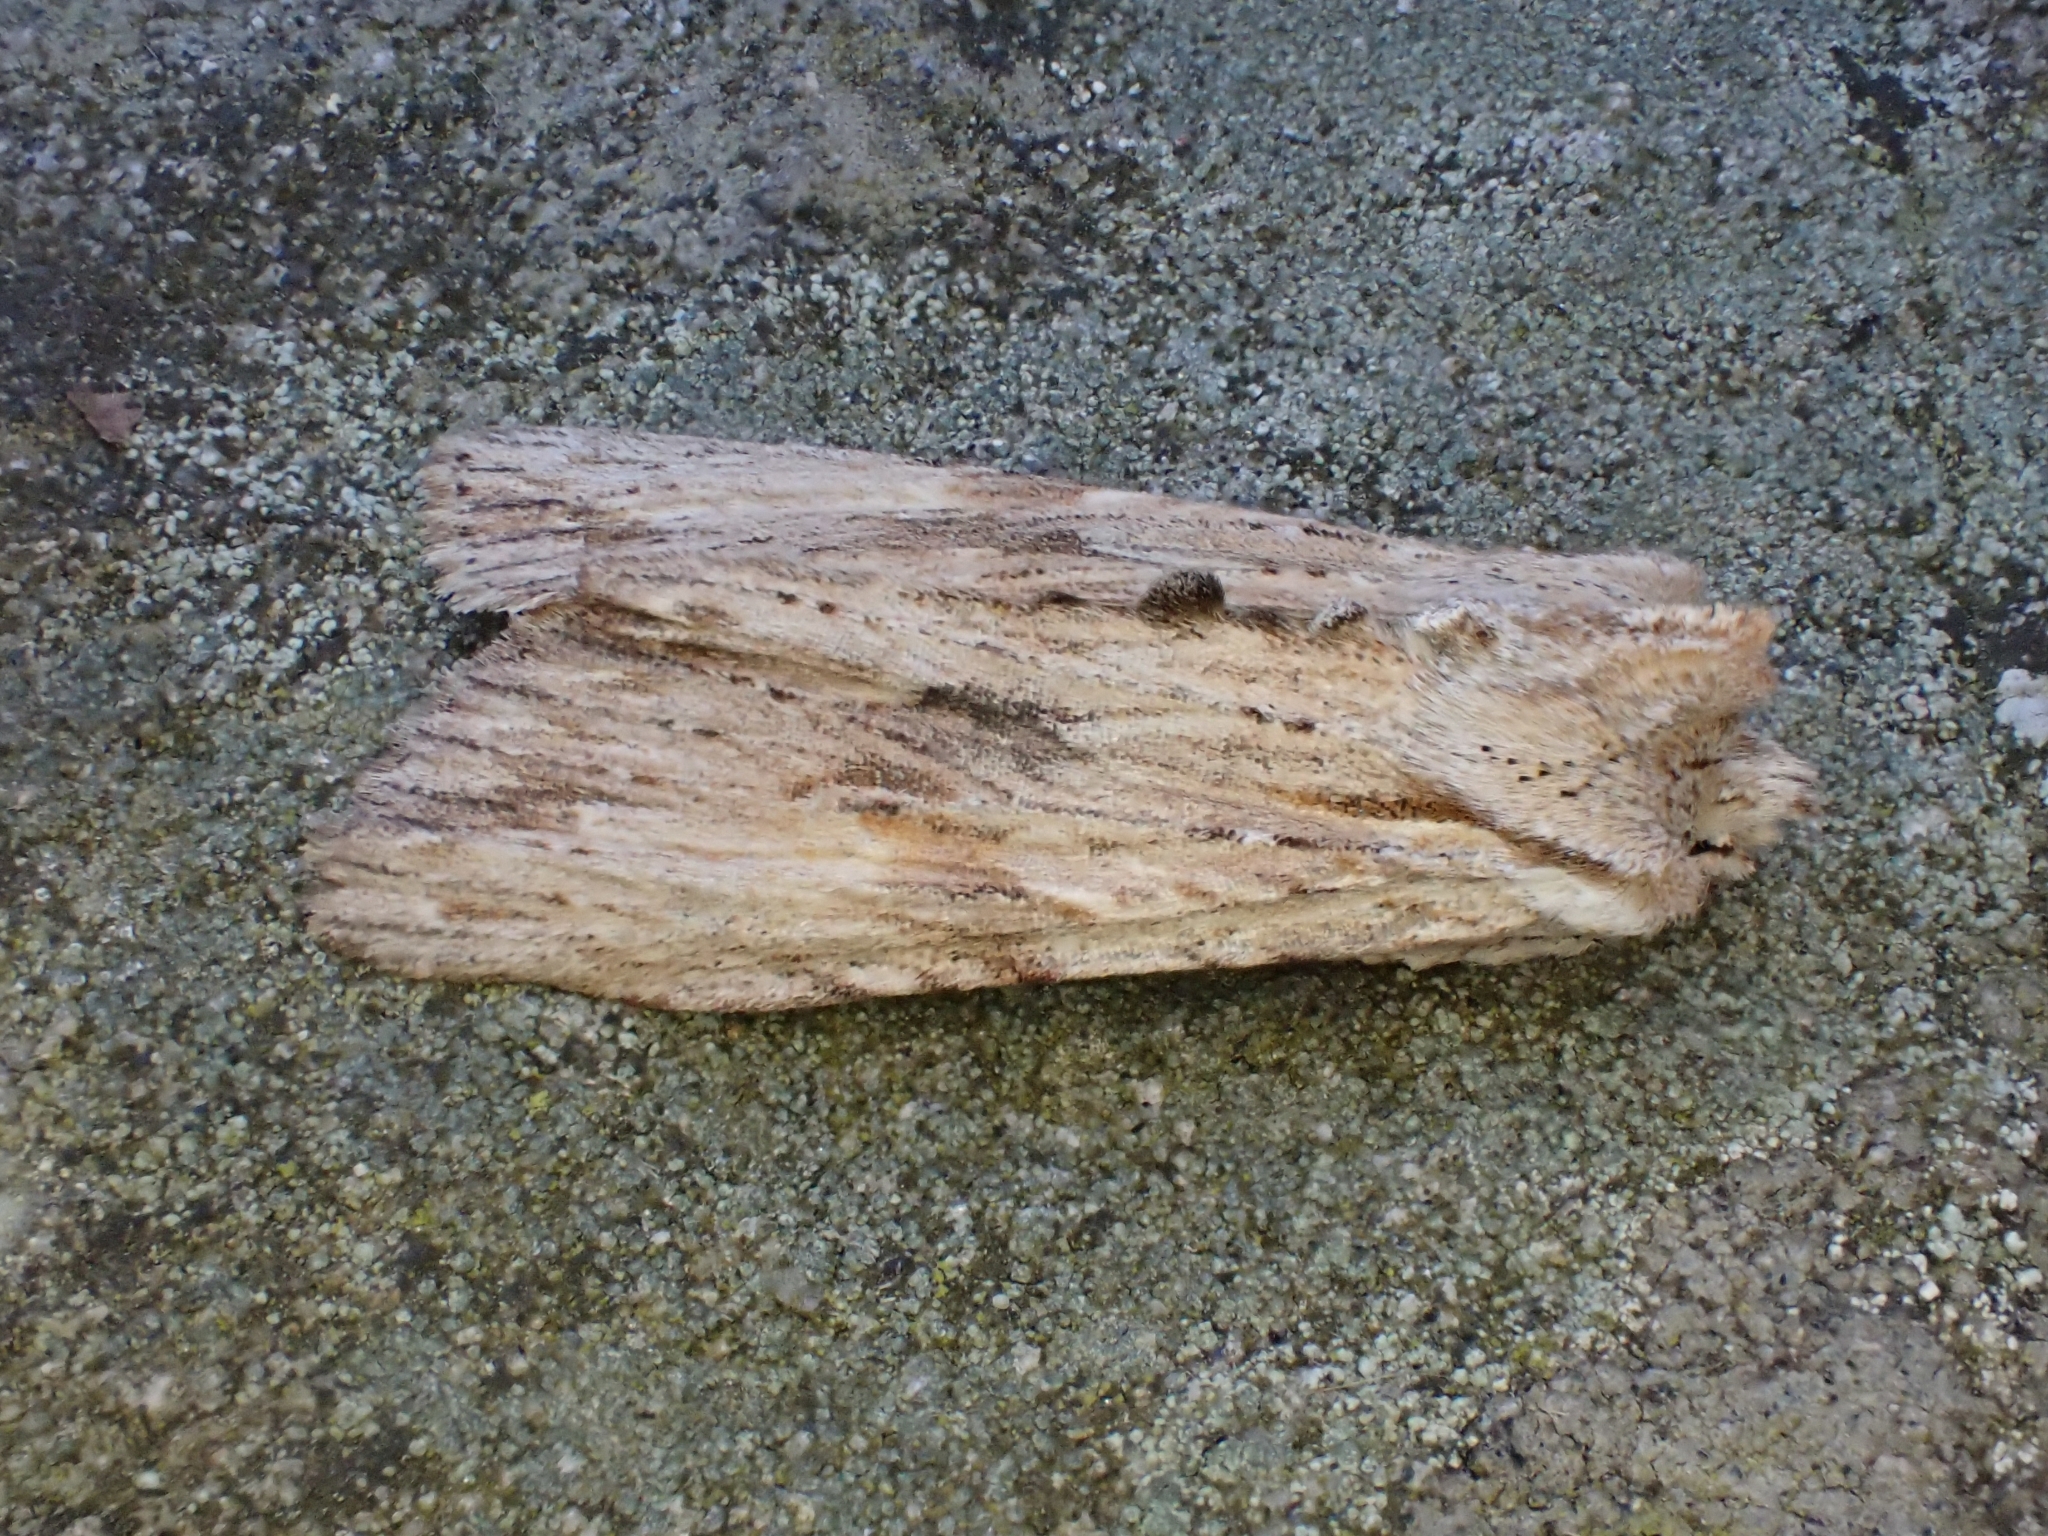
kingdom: Animalia
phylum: Arthropoda
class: Insecta
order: Lepidoptera
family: Noctuidae
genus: Lithophane
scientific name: Lithophane socia
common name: Pale pinion
